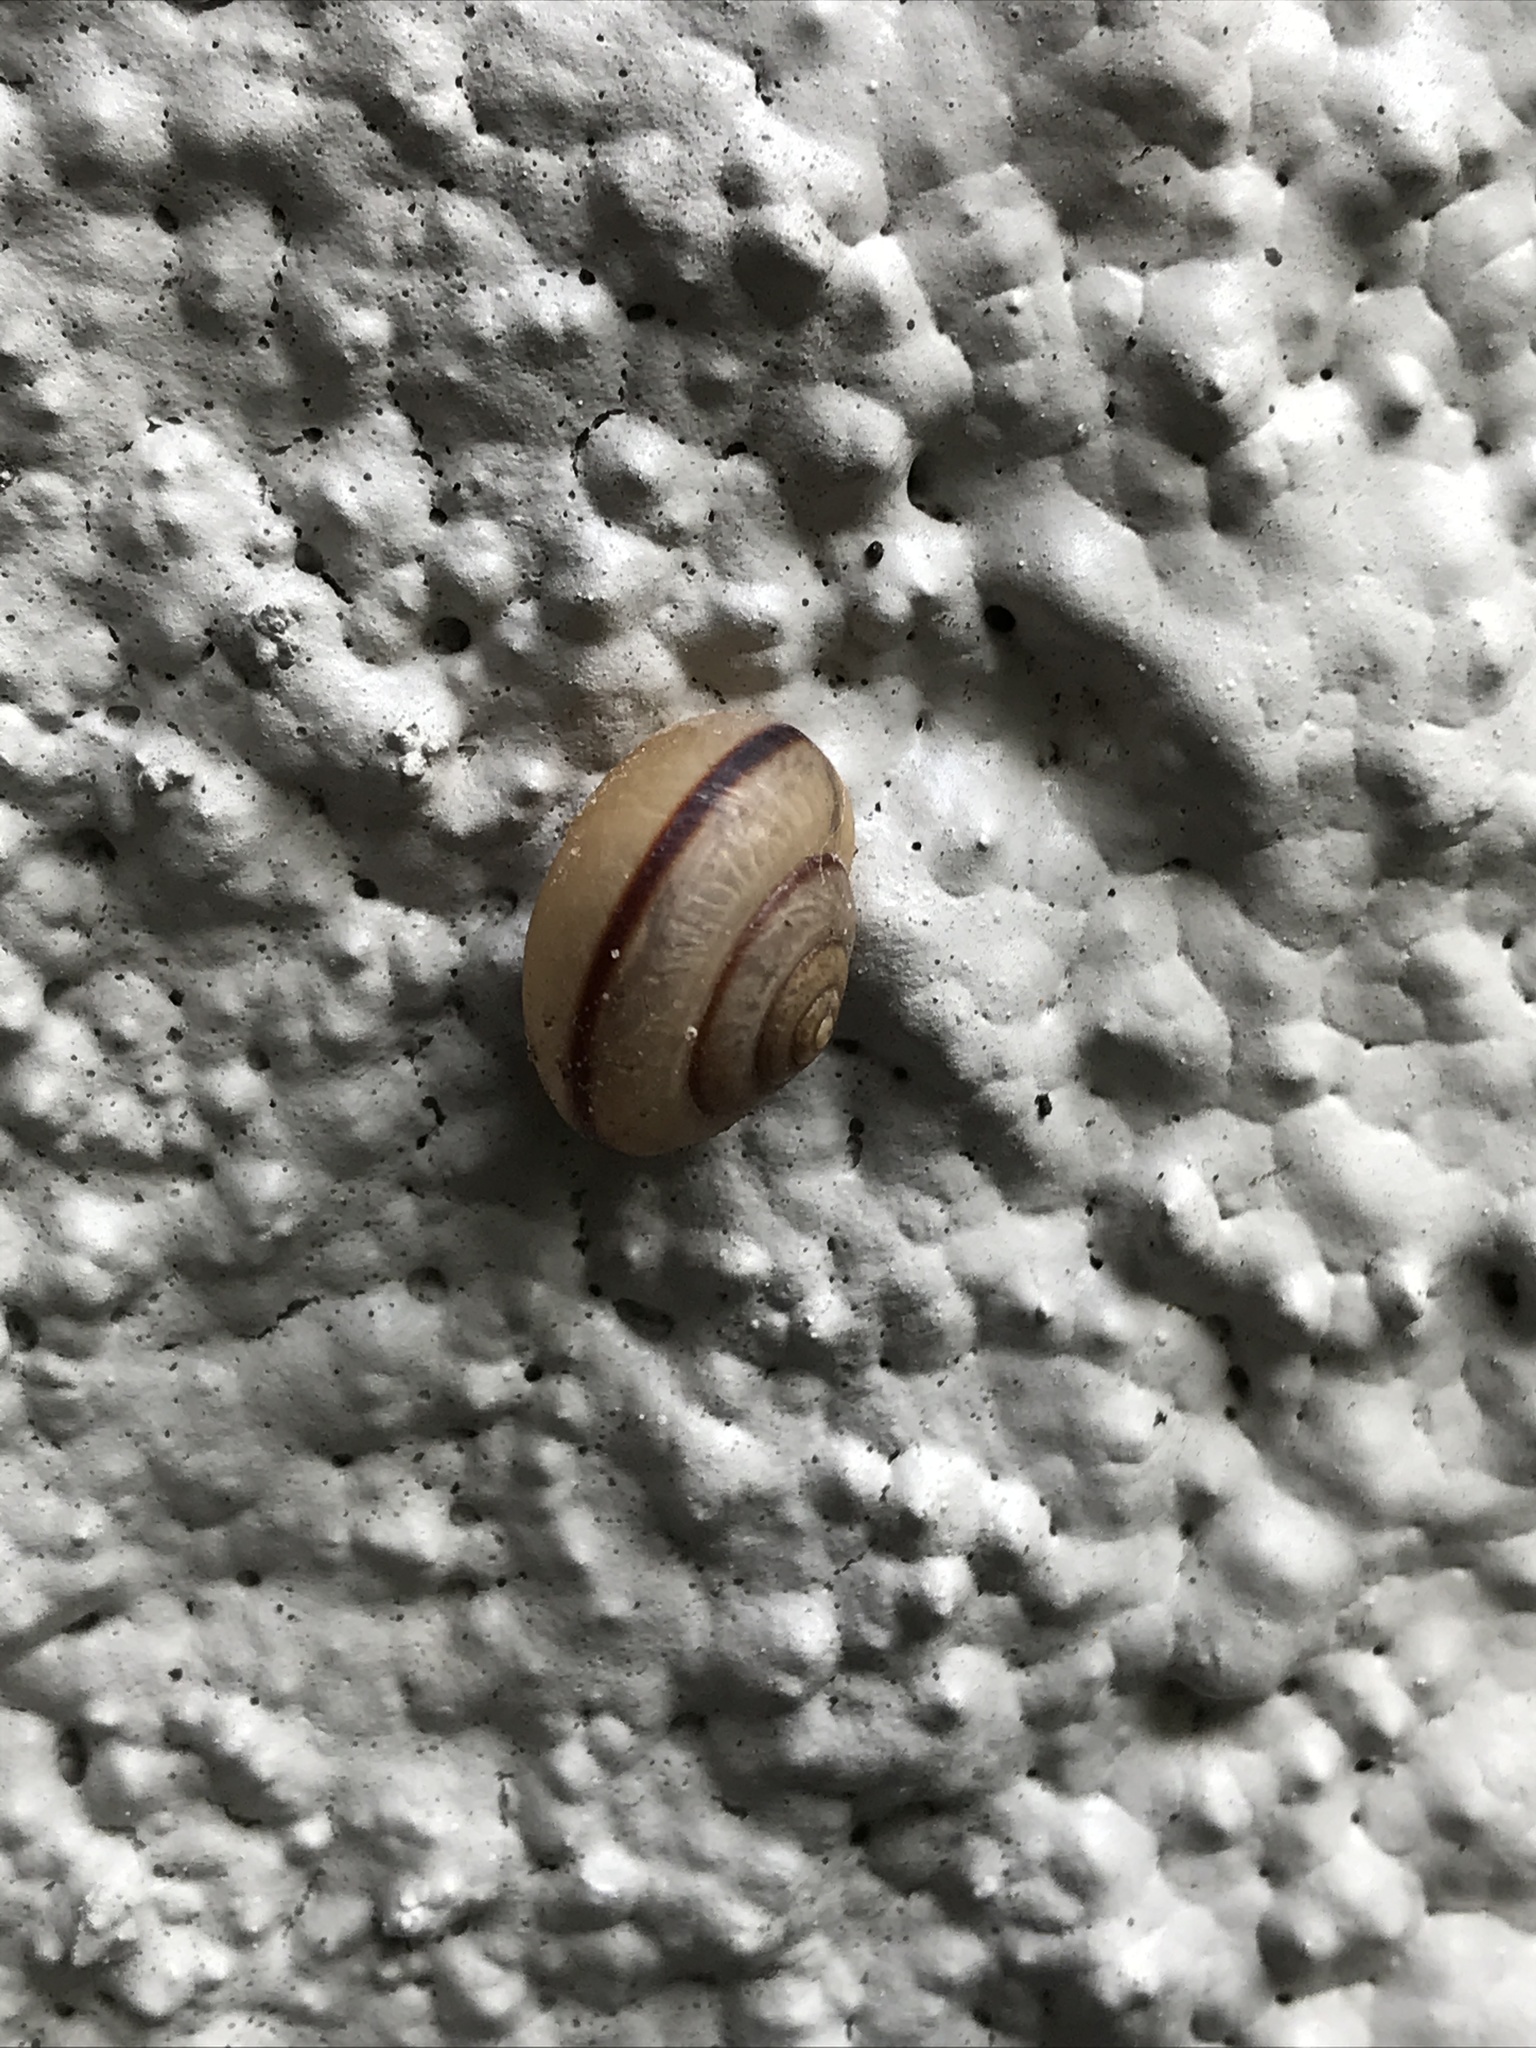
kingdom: Animalia
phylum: Mollusca
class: Gastropoda
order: Stylommatophora
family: Camaenidae
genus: Bradybaena
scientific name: Bradybaena similaris
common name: Asian trampsnail
